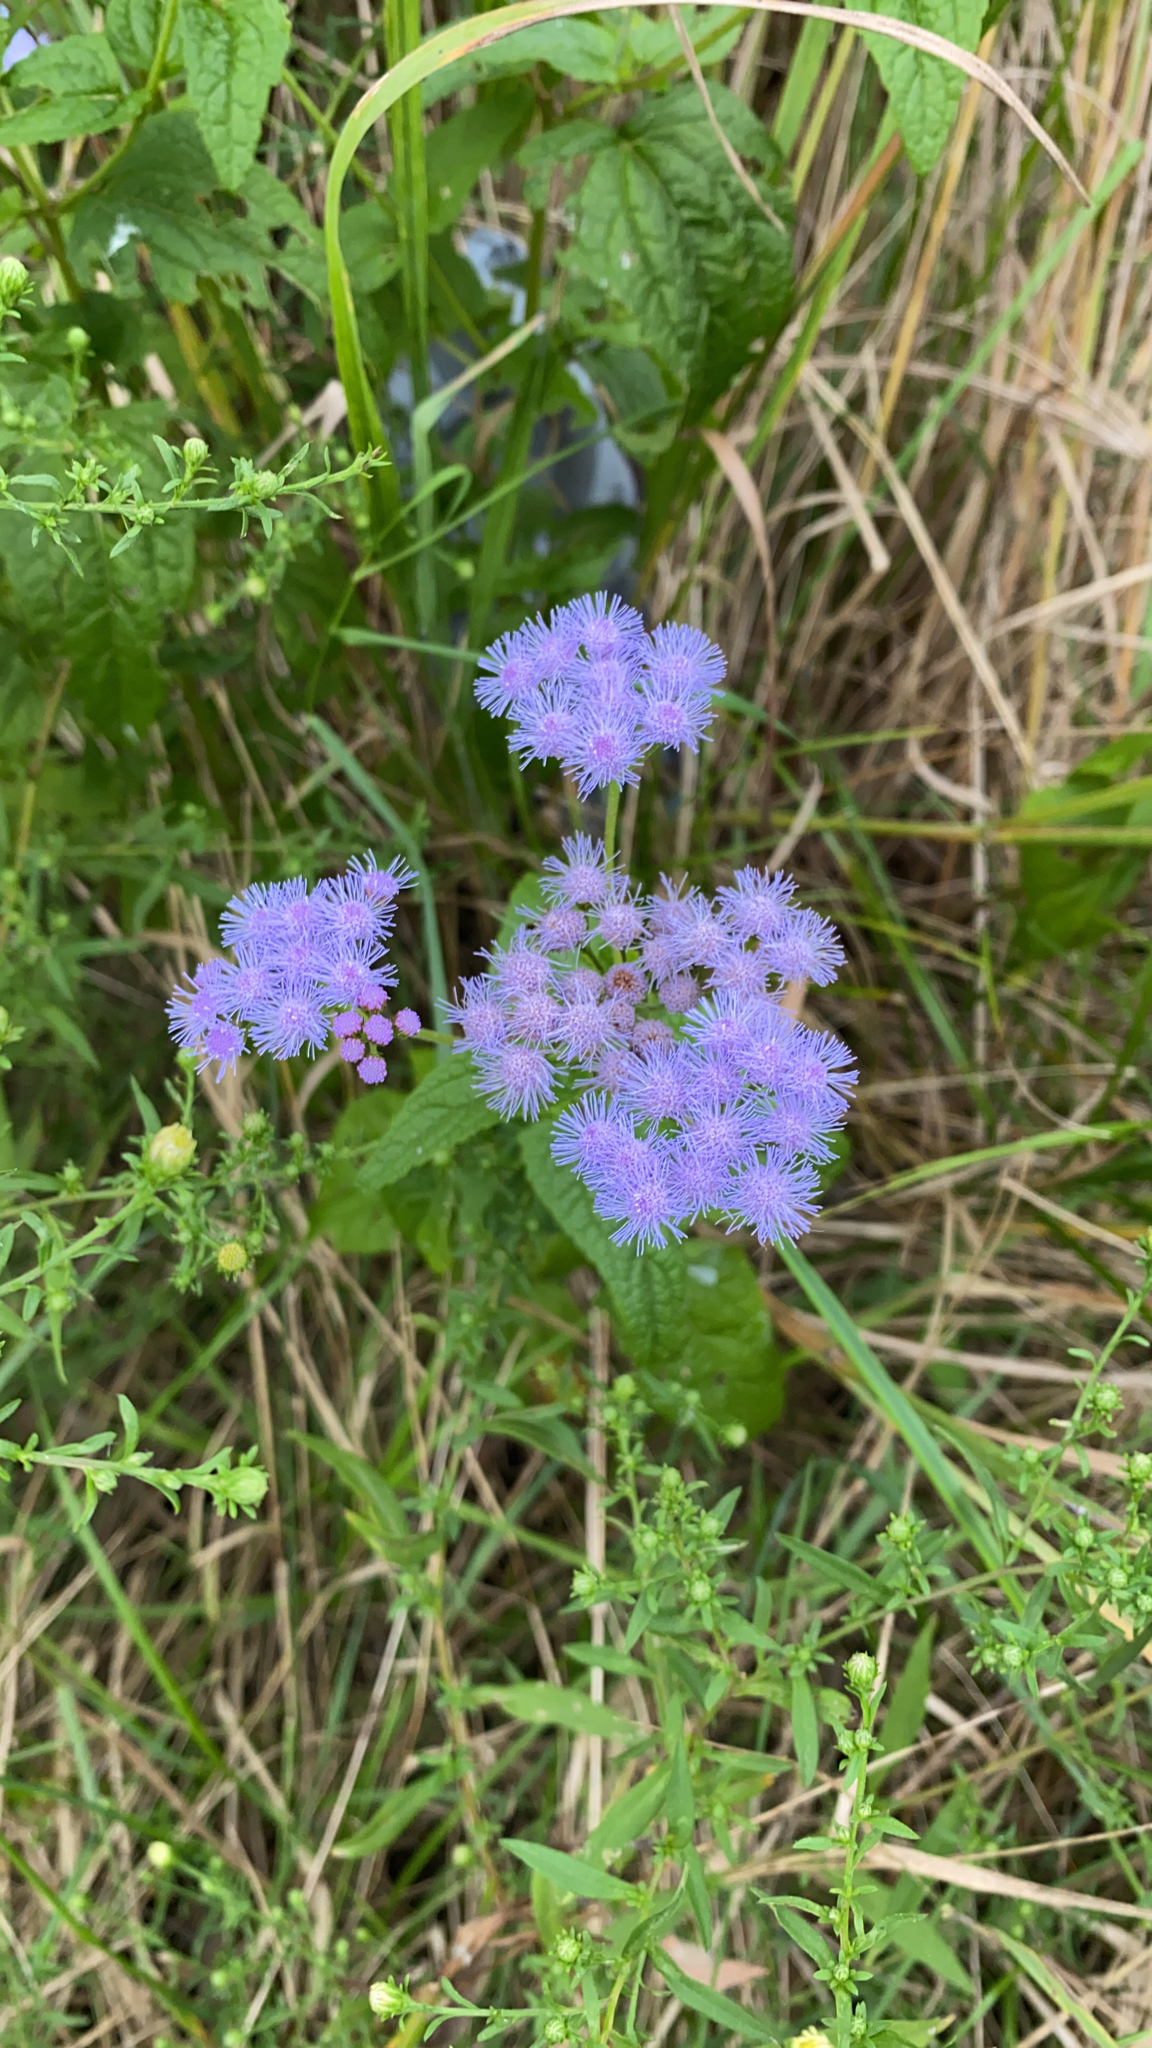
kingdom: Plantae
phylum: Tracheophyta
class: Magnoliopsida
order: Asterales
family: Asteraceae
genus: Conoclinium
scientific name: Conoclinium coelestinum
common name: Blue mistflower
